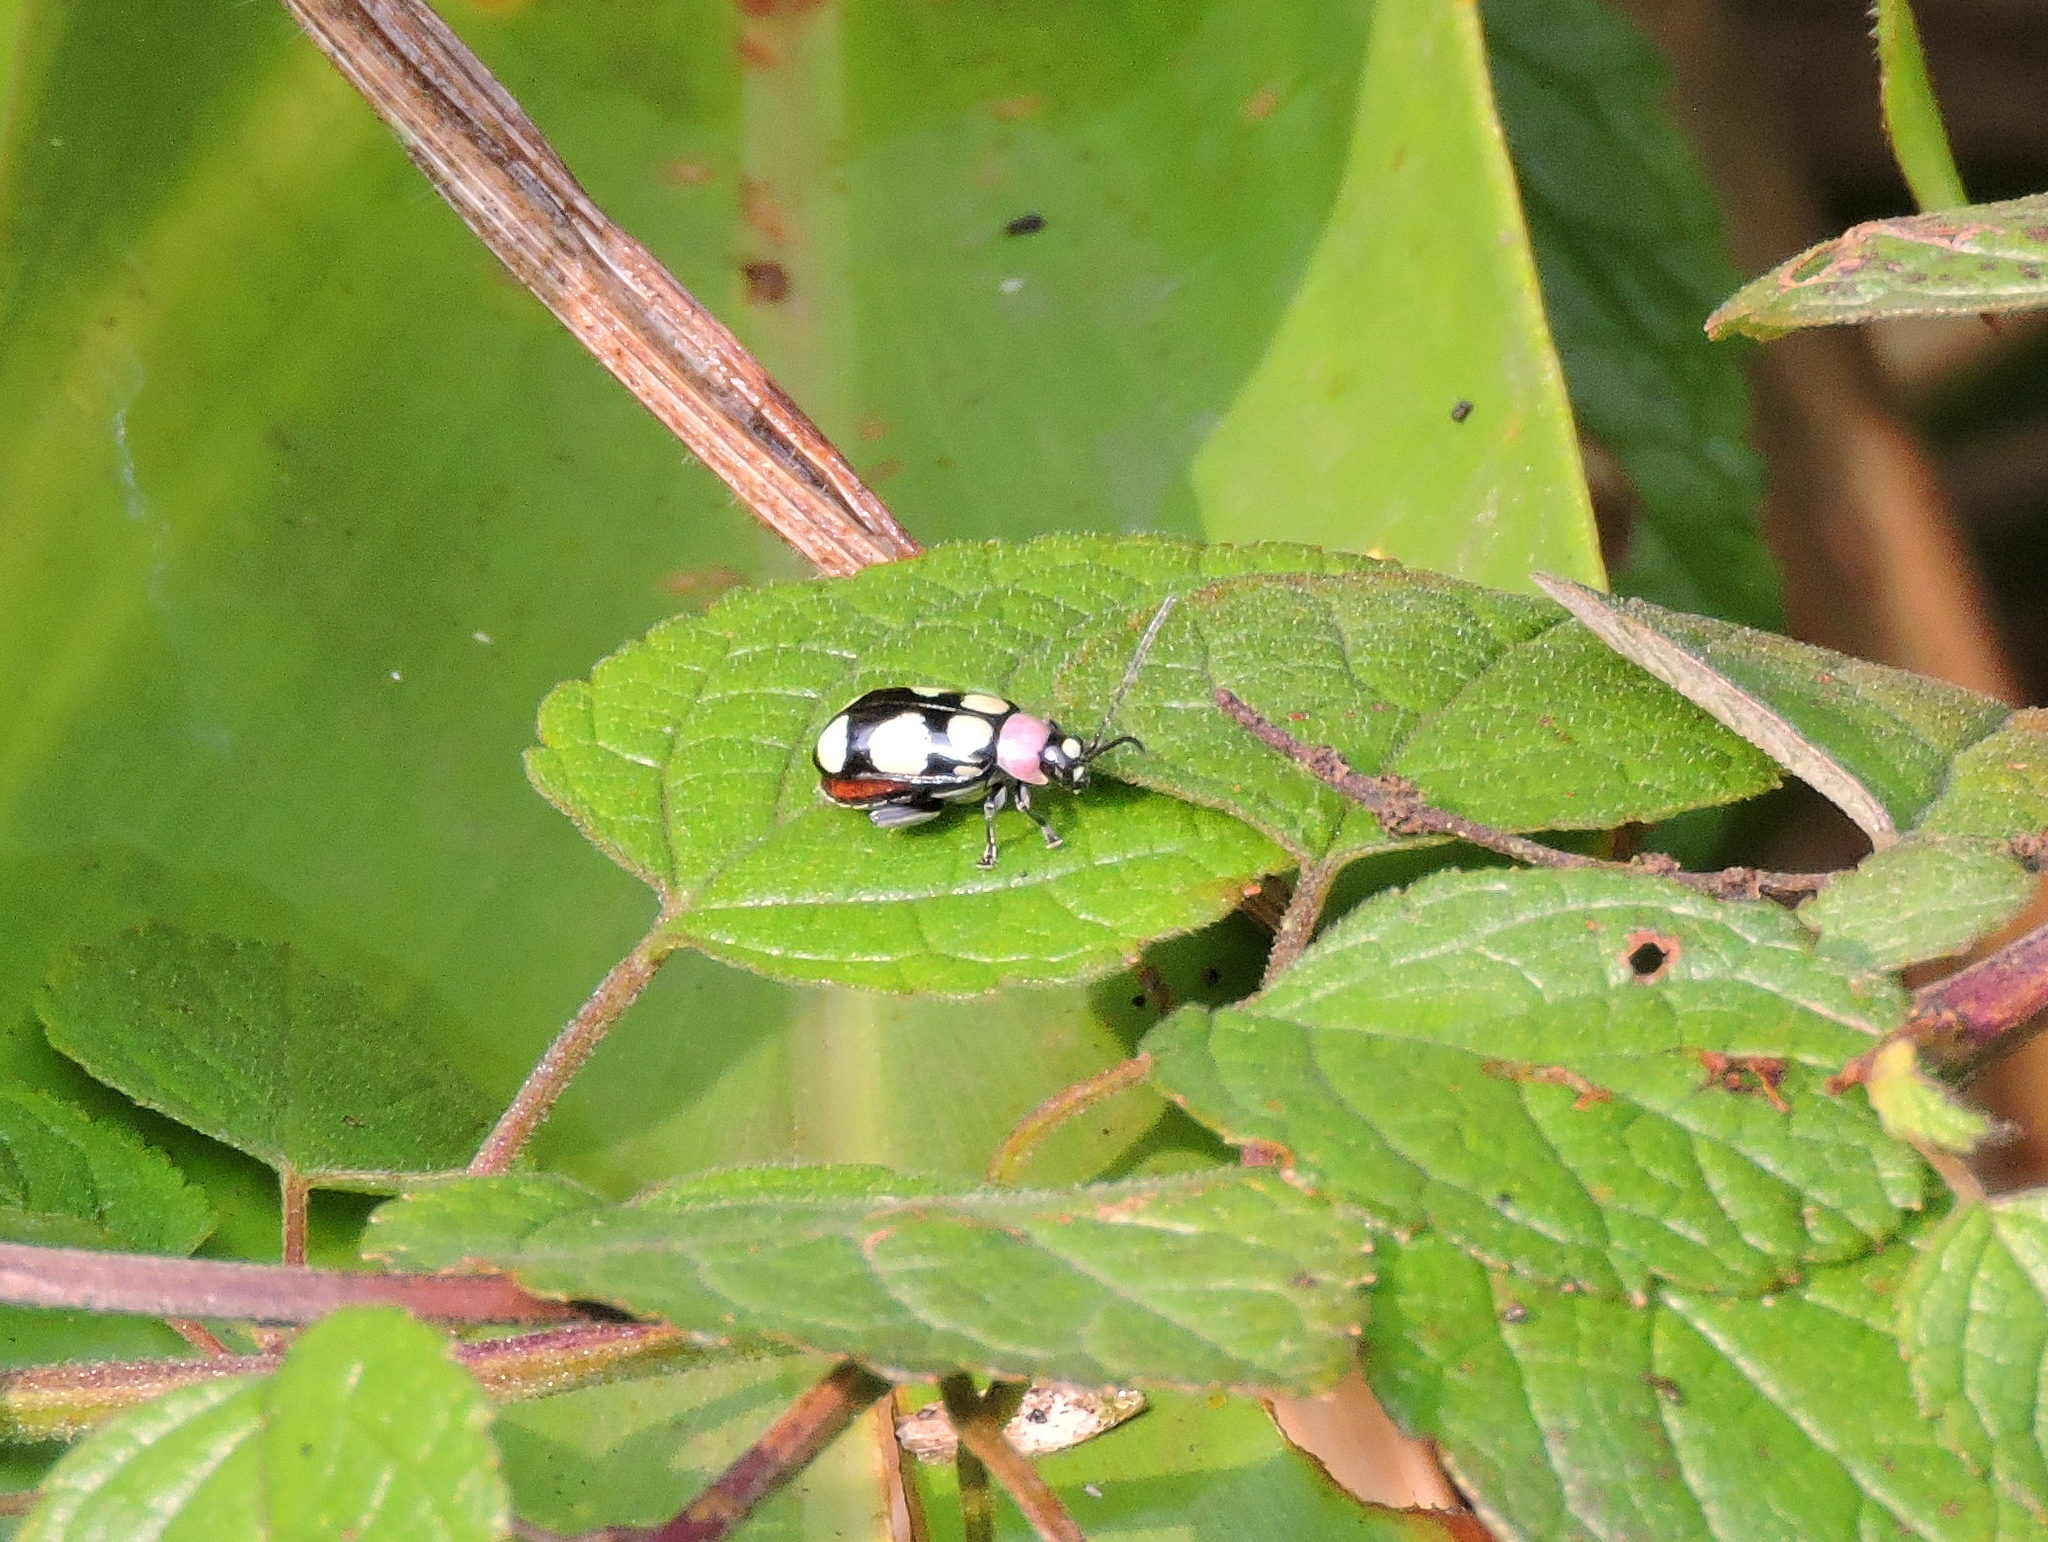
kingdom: Animalia
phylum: Arthropoda
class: Insecta
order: Coleoptera
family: Chrysomelidae
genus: Omophoita
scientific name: Omophoita
